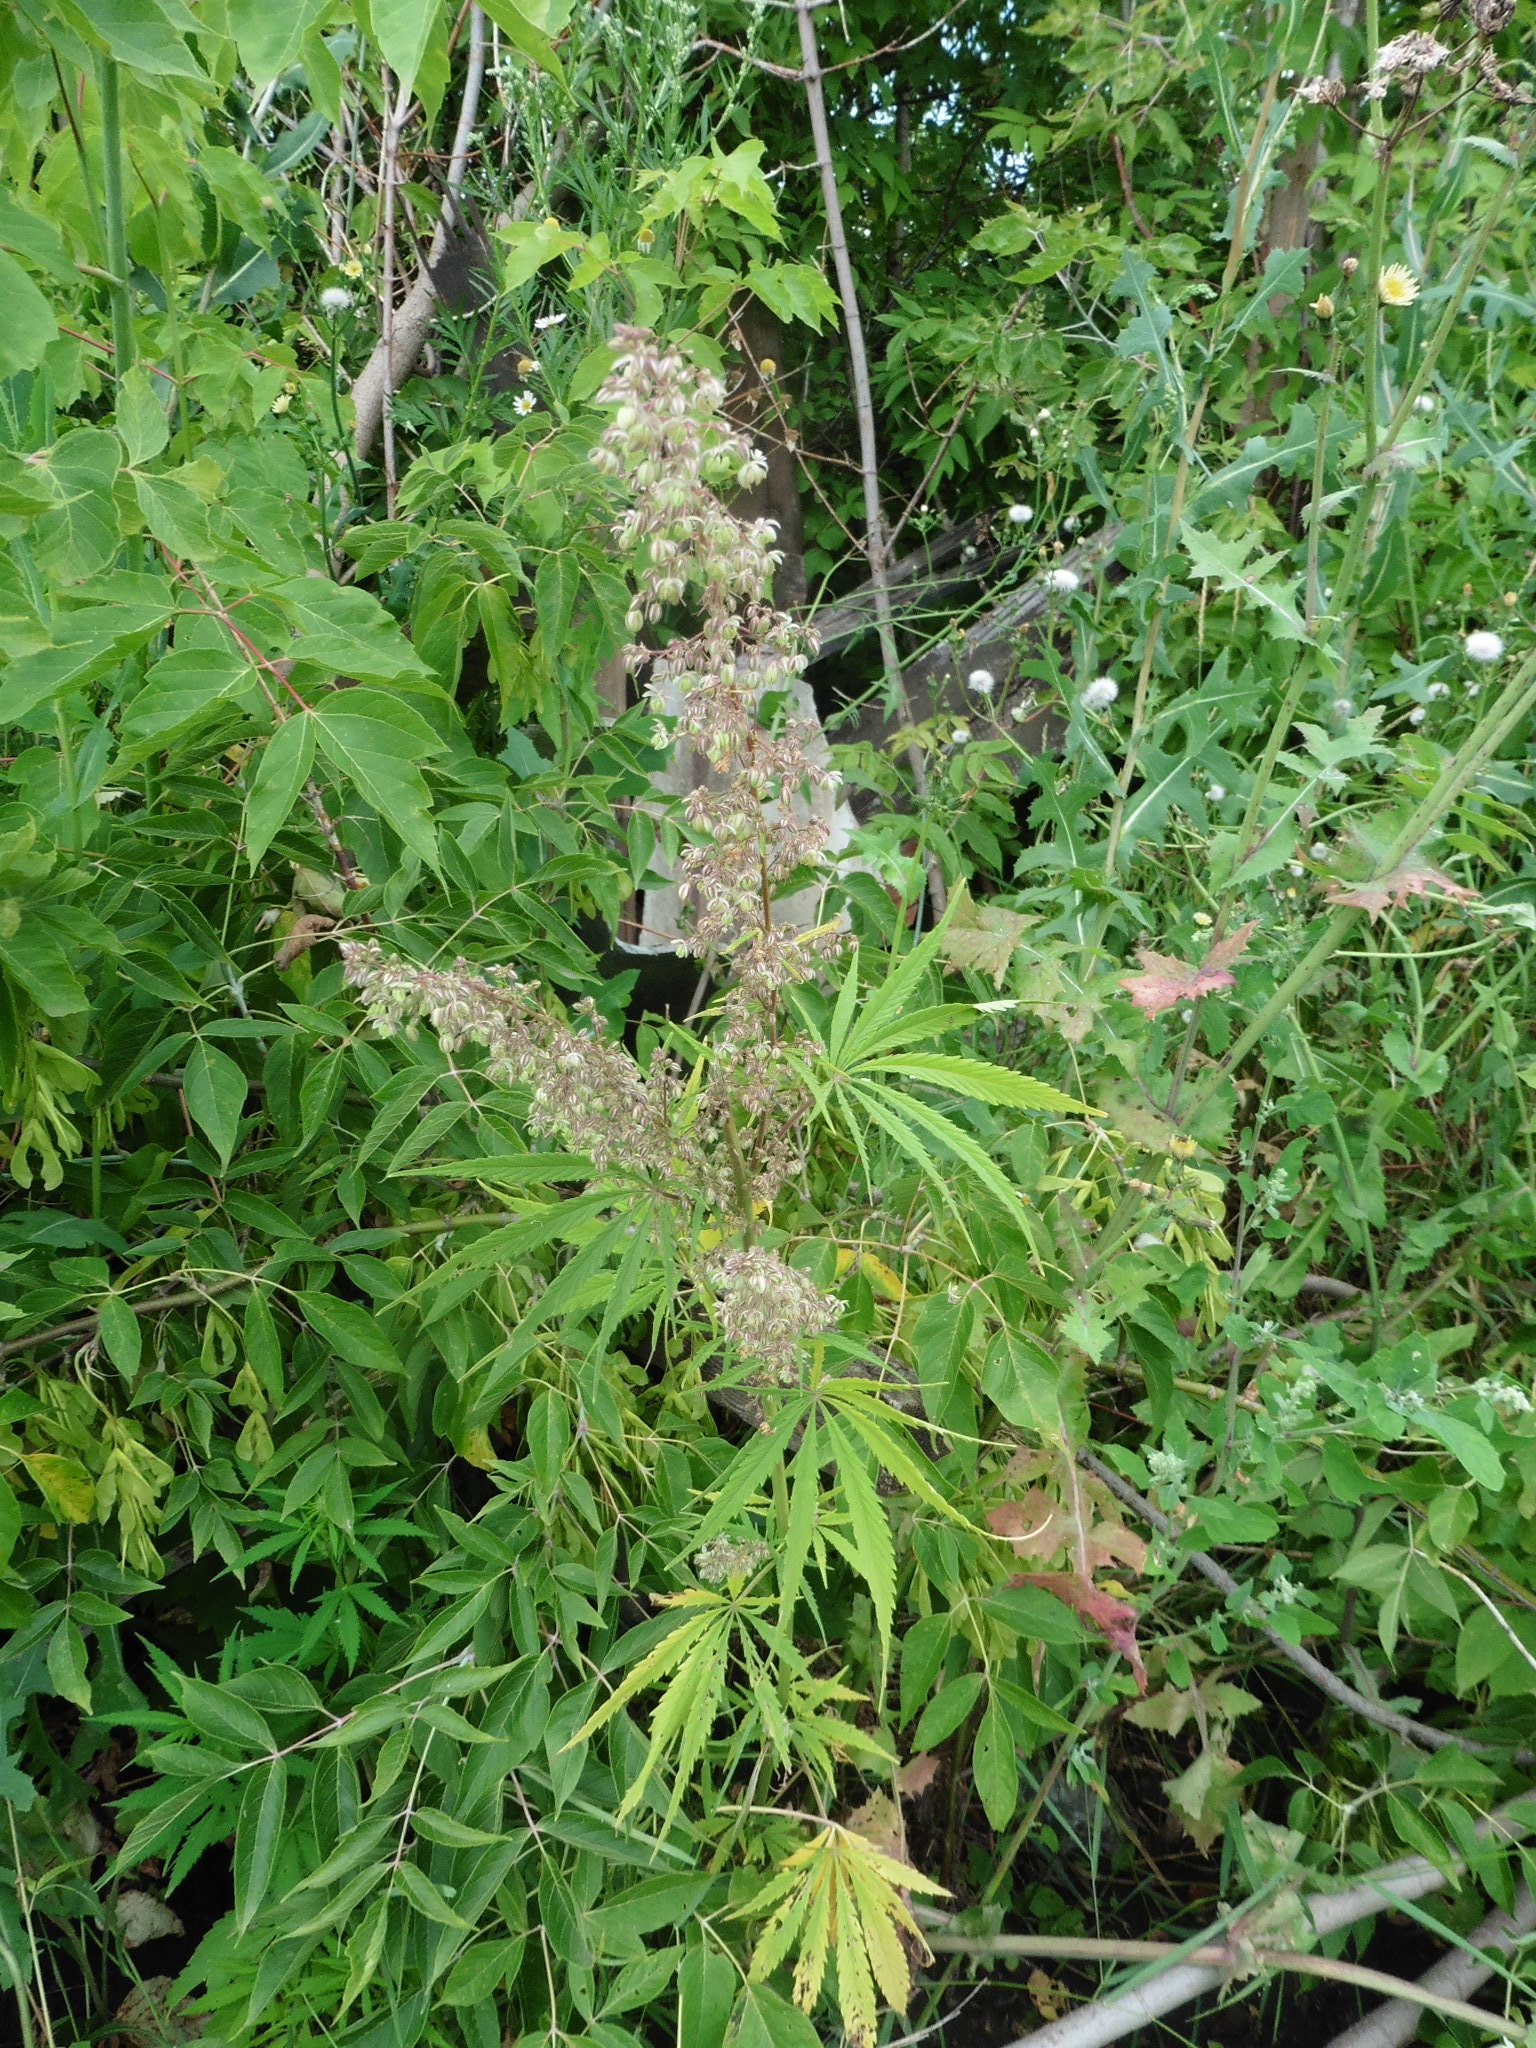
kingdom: Plantae
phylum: Tracheophyta
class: Magnoliopsida
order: Rosales
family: Cannabaceae
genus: Cannabis
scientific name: Cannabis sativa
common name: Hemp
